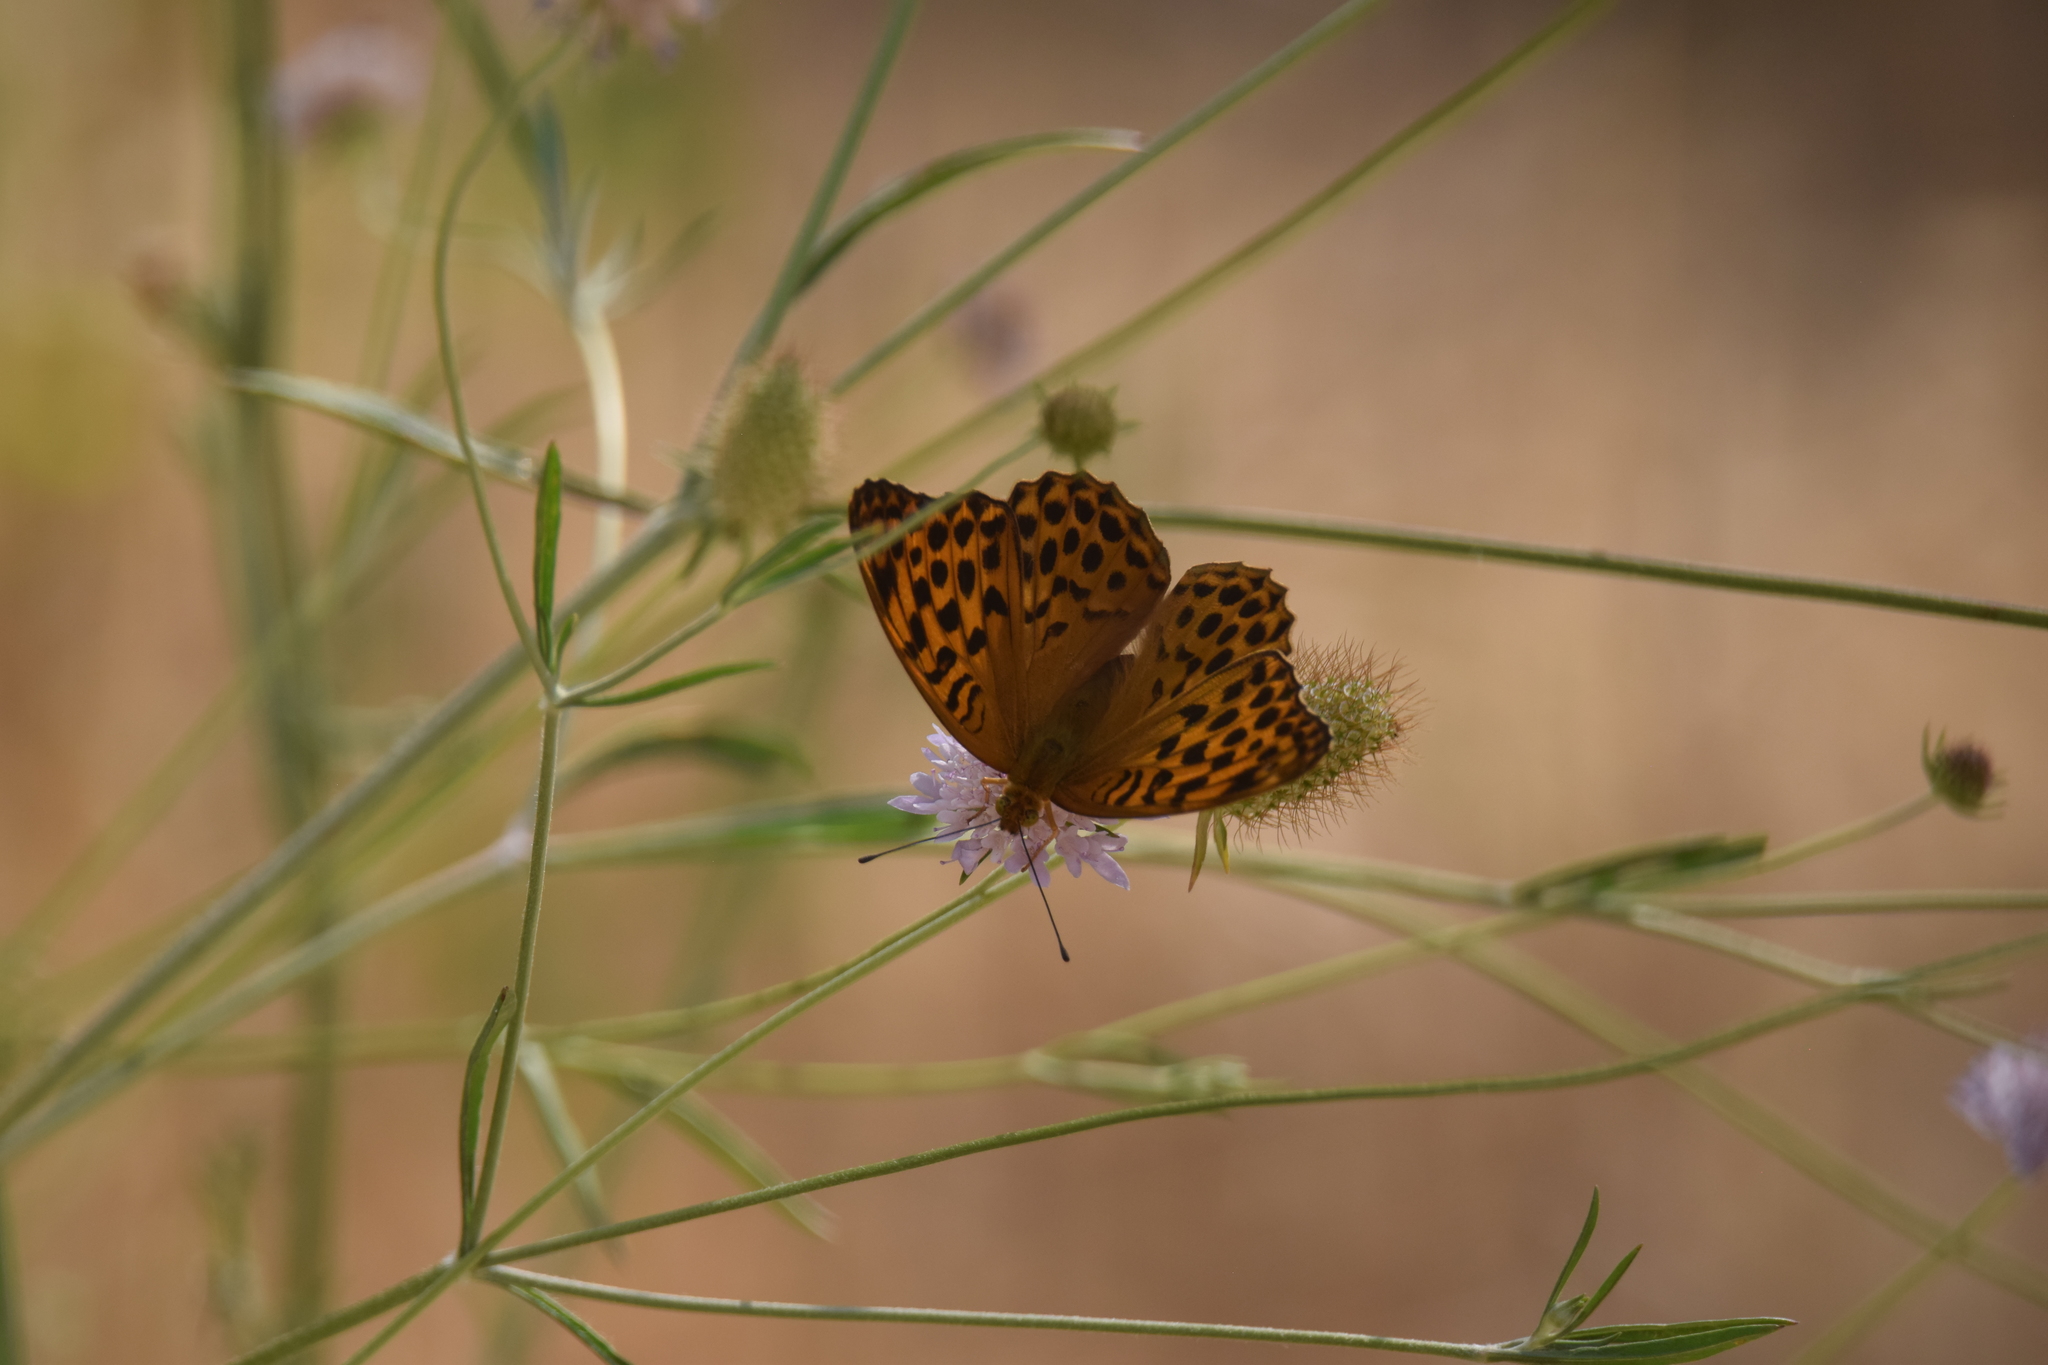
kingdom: Animalia
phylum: Arthropoda
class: Insecta
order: Lepidoptera
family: Nymphalidae
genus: Argynnis
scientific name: Argynnis paphia
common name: Silver-washed fritillary
